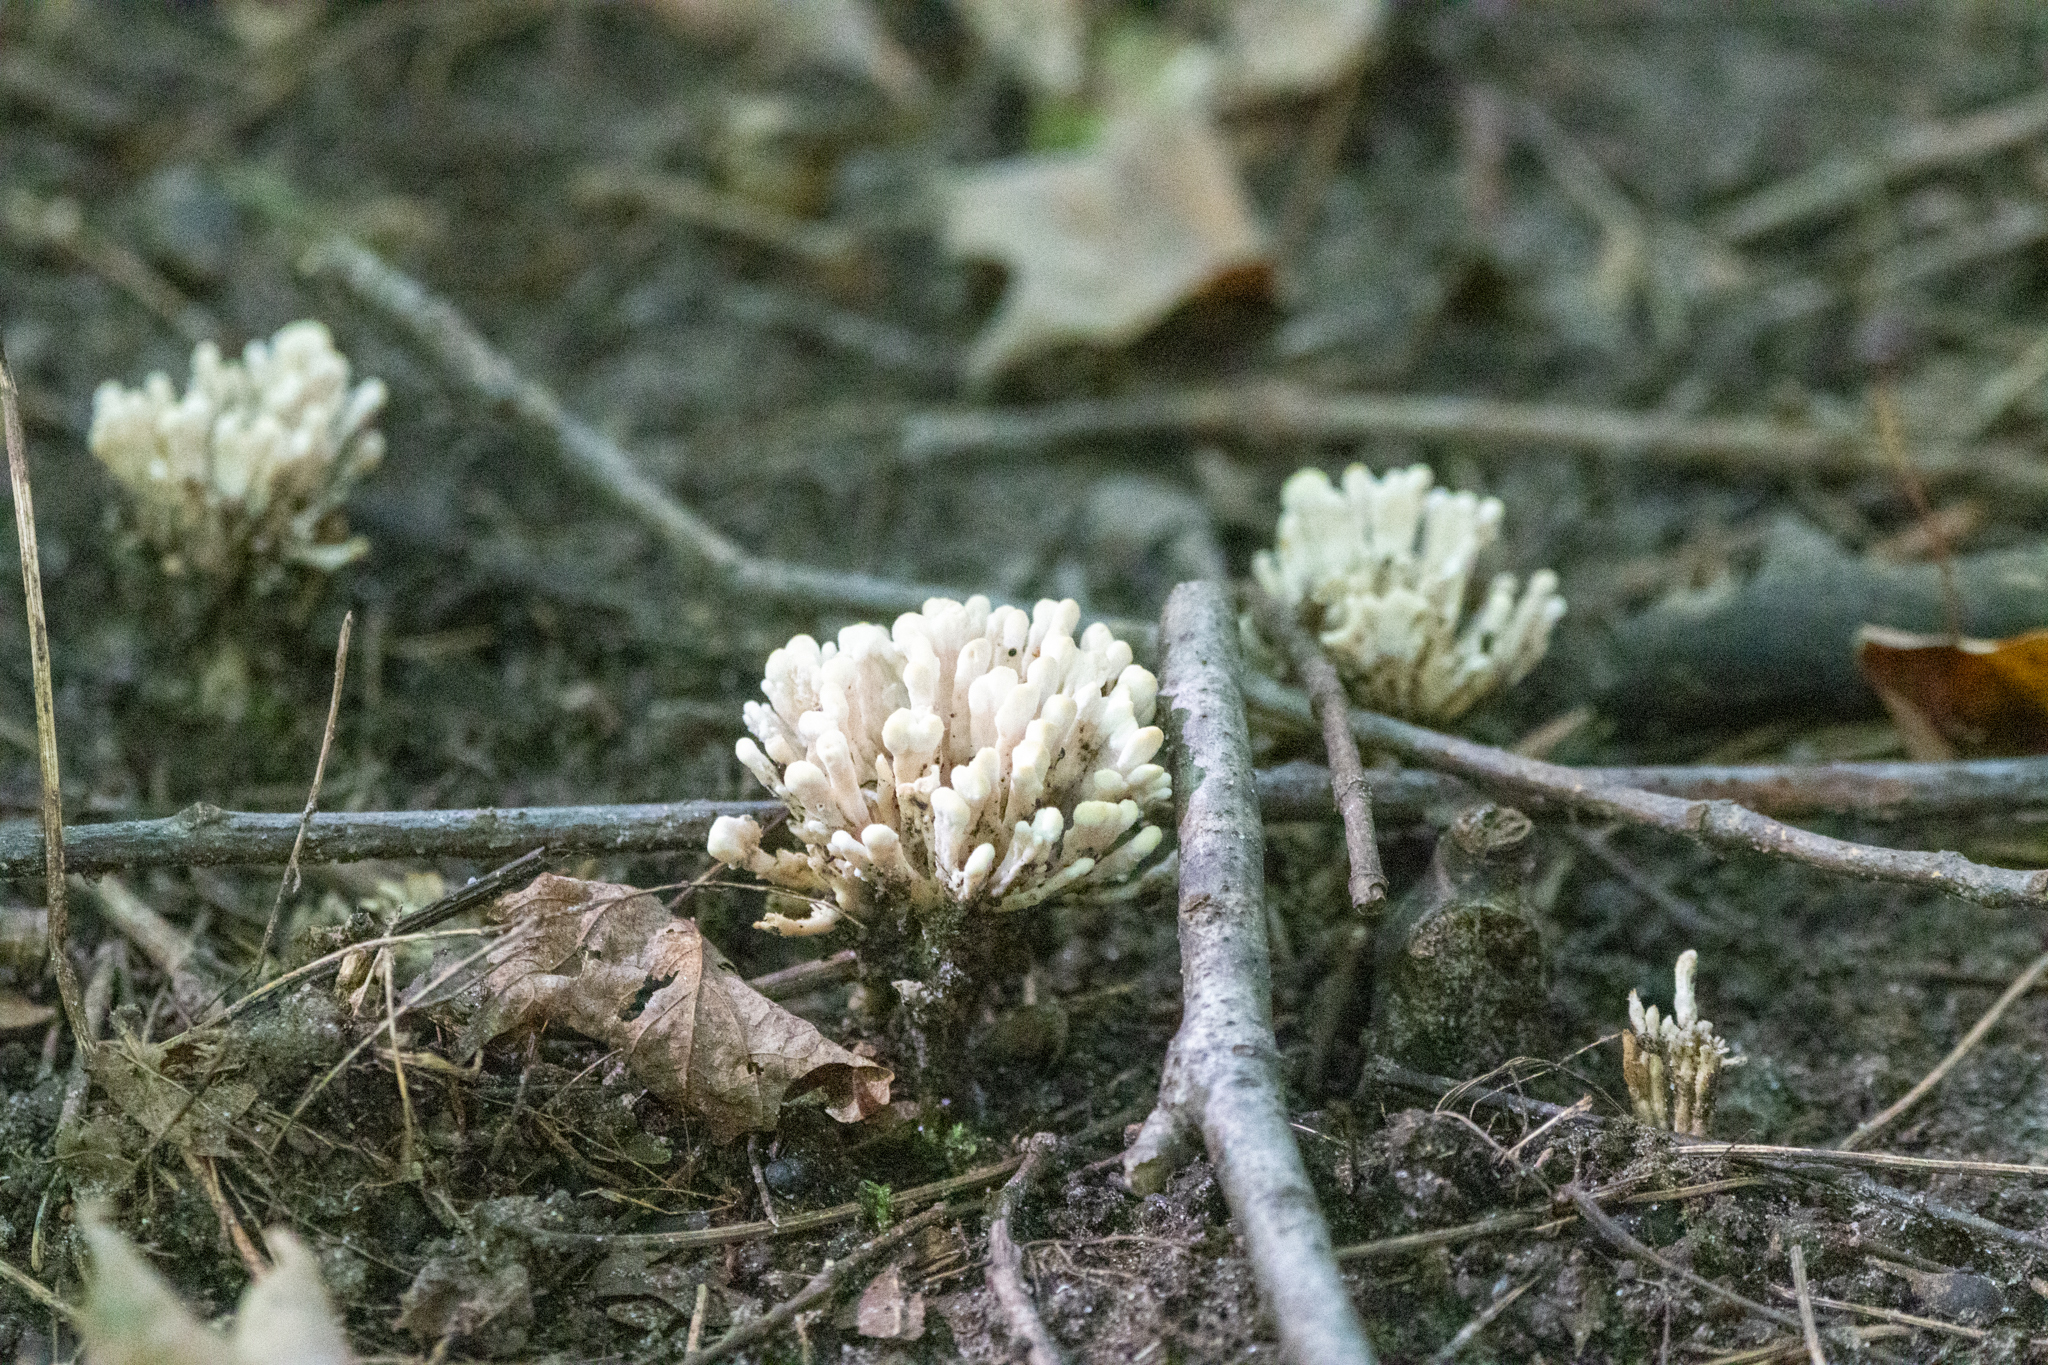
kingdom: Fungi
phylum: Basidiomycota
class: Agaricomycetes
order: Sebacinales
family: Sebacinaceae
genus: Sebacina
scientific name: Sebacina schweinitzii
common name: Jellied false coral fungus
